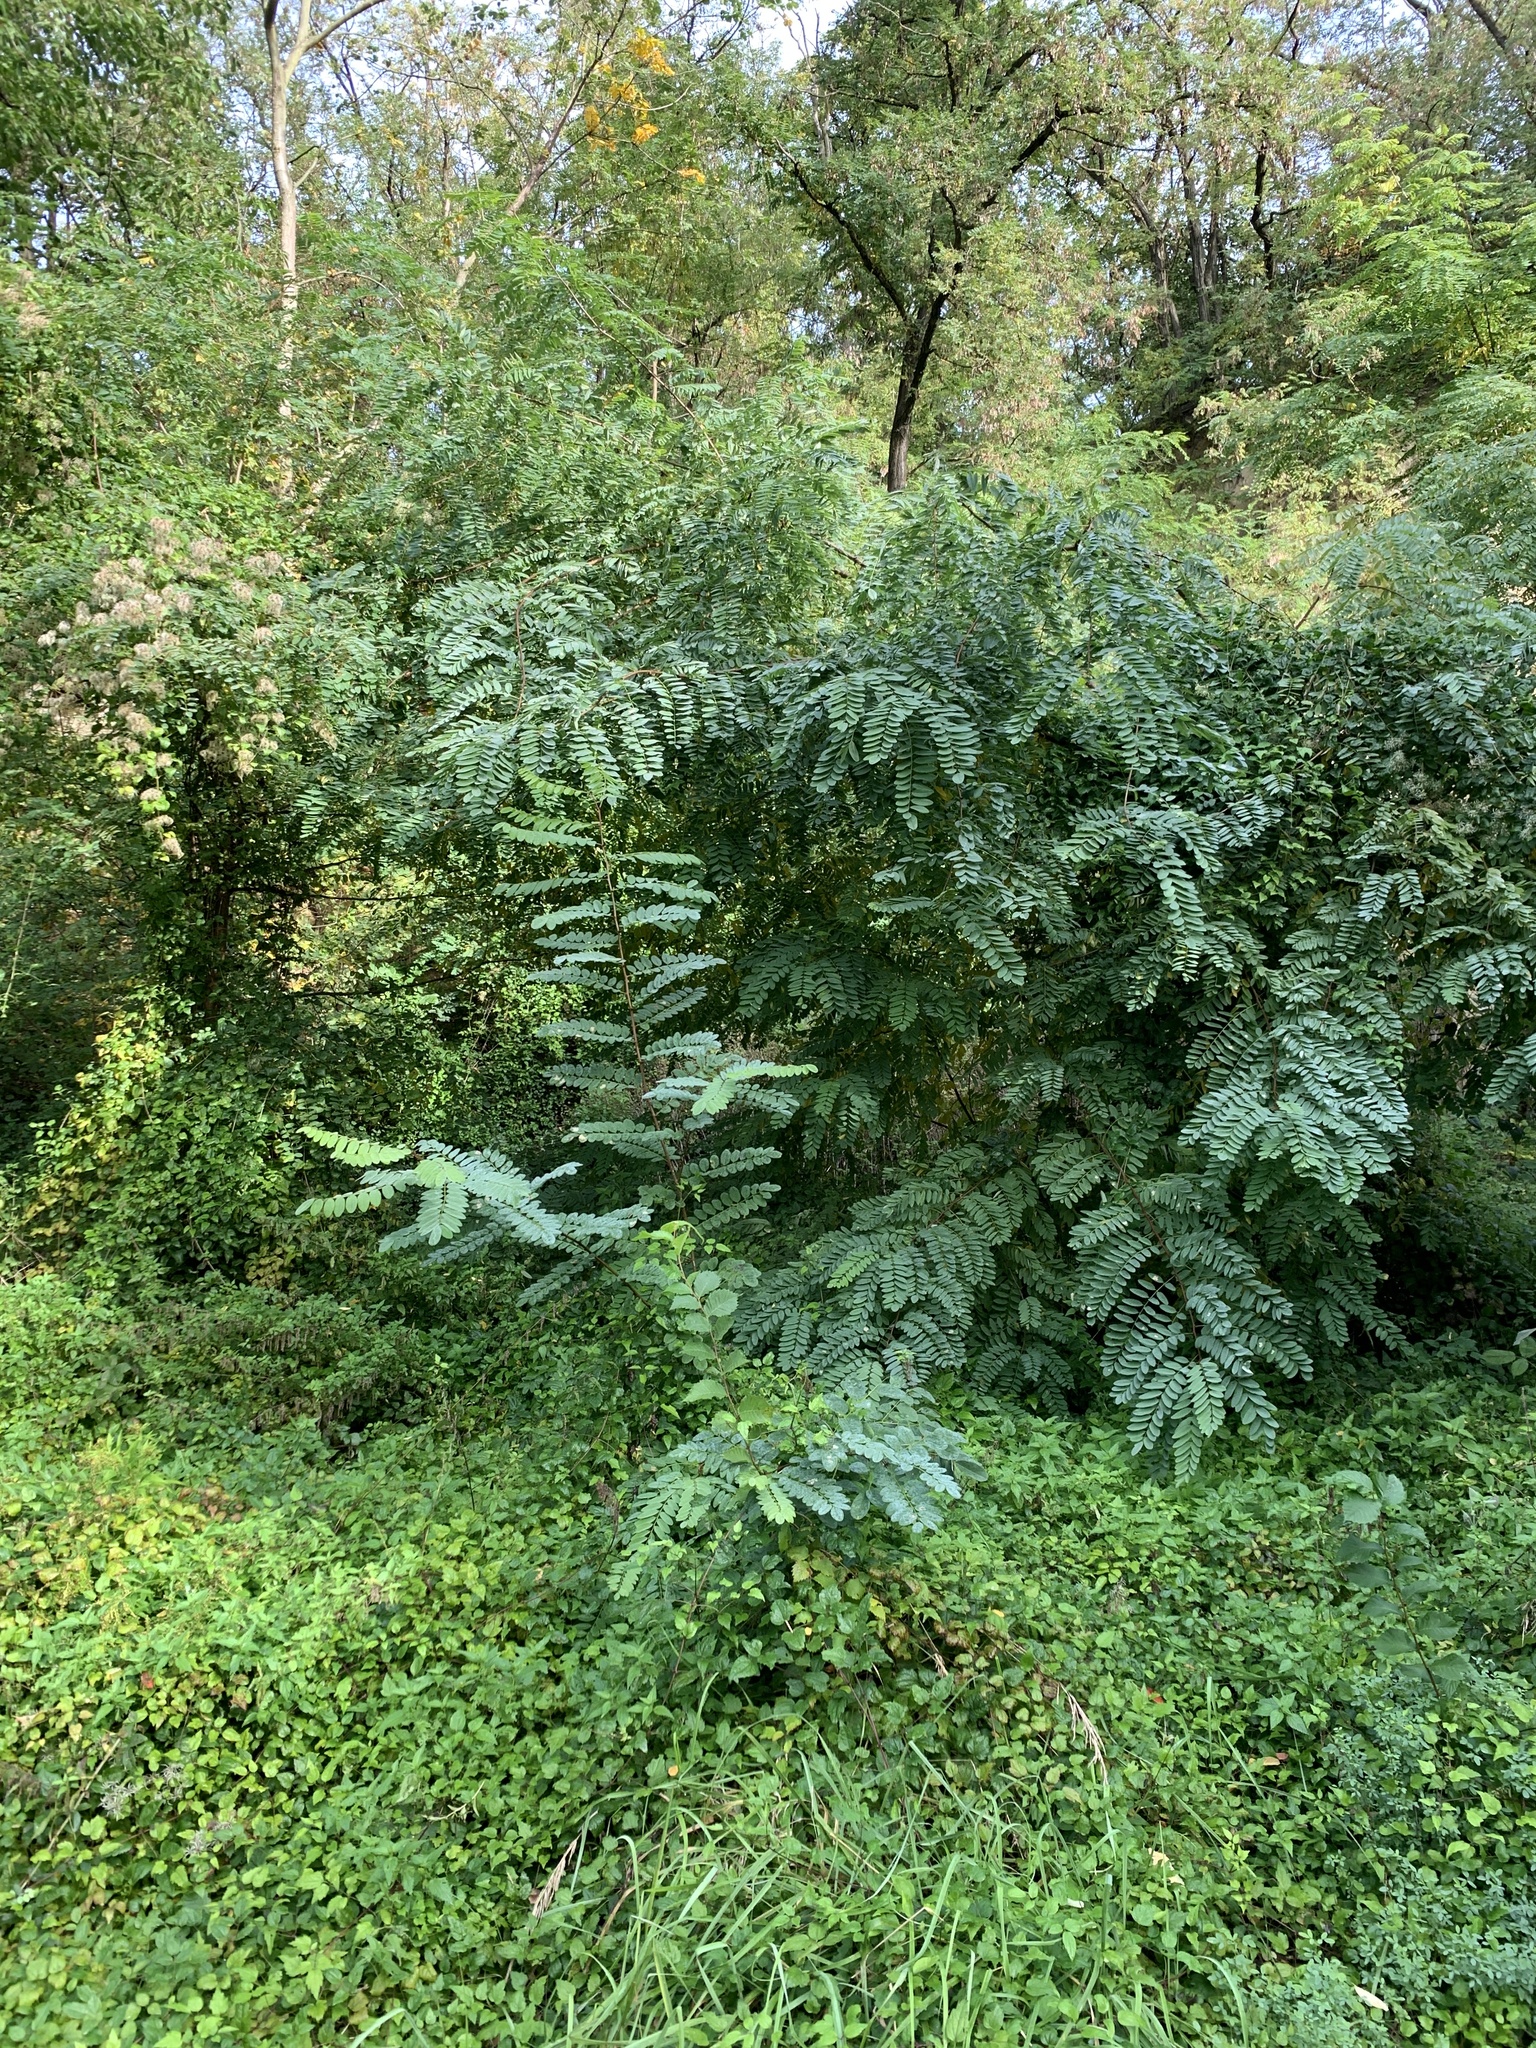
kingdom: Plantae
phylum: Tracheophyta
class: Magnoliopsida
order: Fabales
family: Fabaceae
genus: Robinia
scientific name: Robinia pseudoacacia
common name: Black locust
